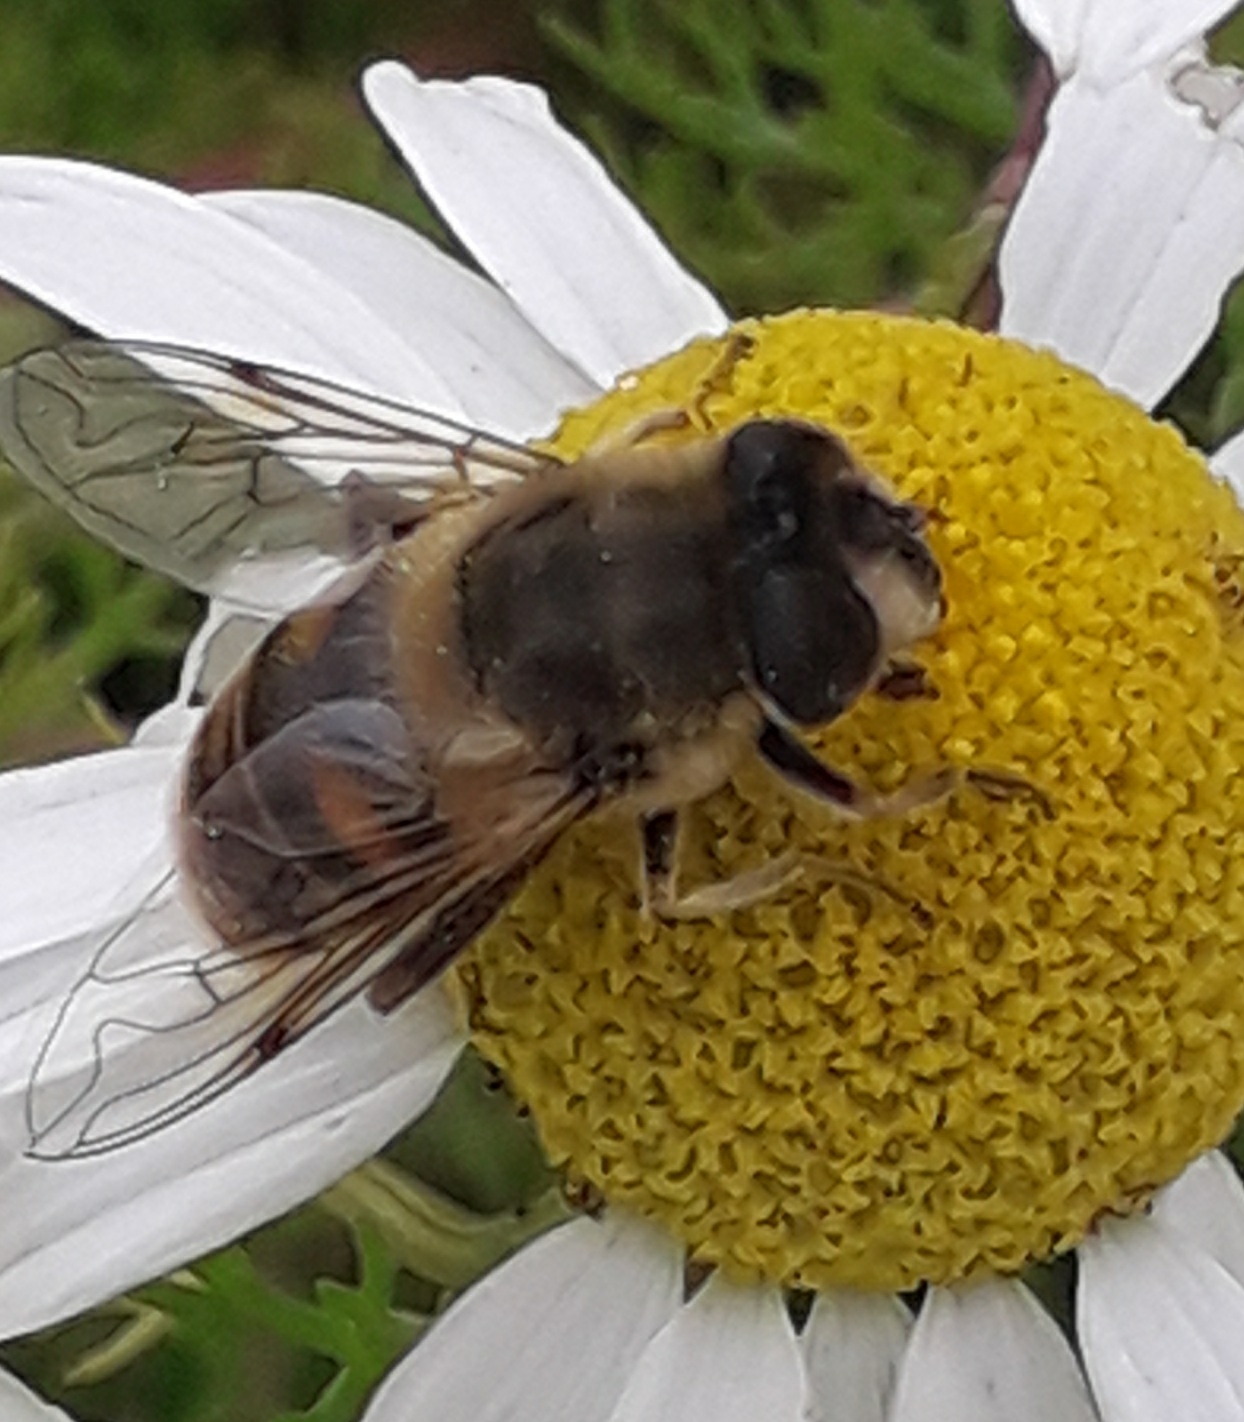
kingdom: Animalia
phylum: Arthropoda
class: Insecta
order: Diptera
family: Syrphidae
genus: Eristalis
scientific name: Eristalis tenax
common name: Drone fly
